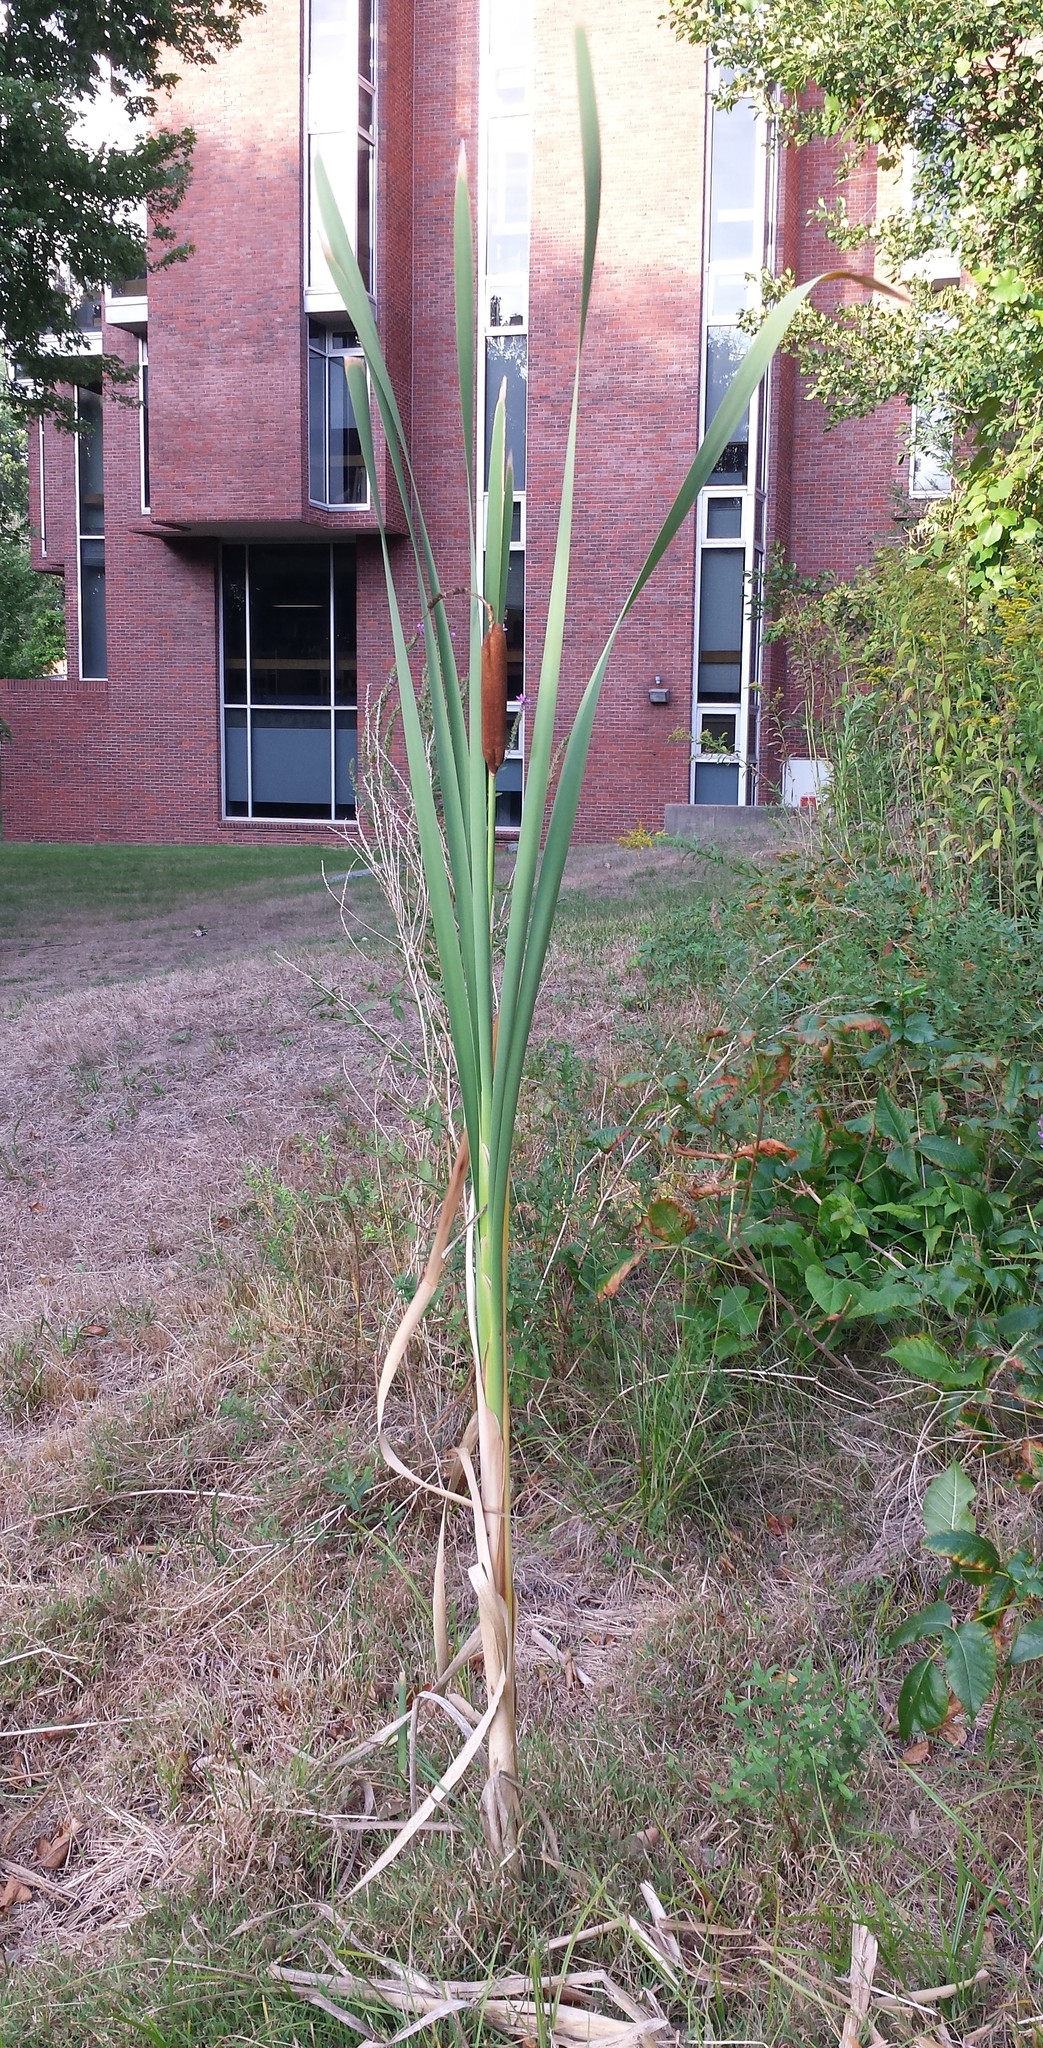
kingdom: Plantae
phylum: Tracheophyta
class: Liliopsida
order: Poales
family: Typhaceae
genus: Typha
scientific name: Typha latifolia
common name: Broadleaf cattail
